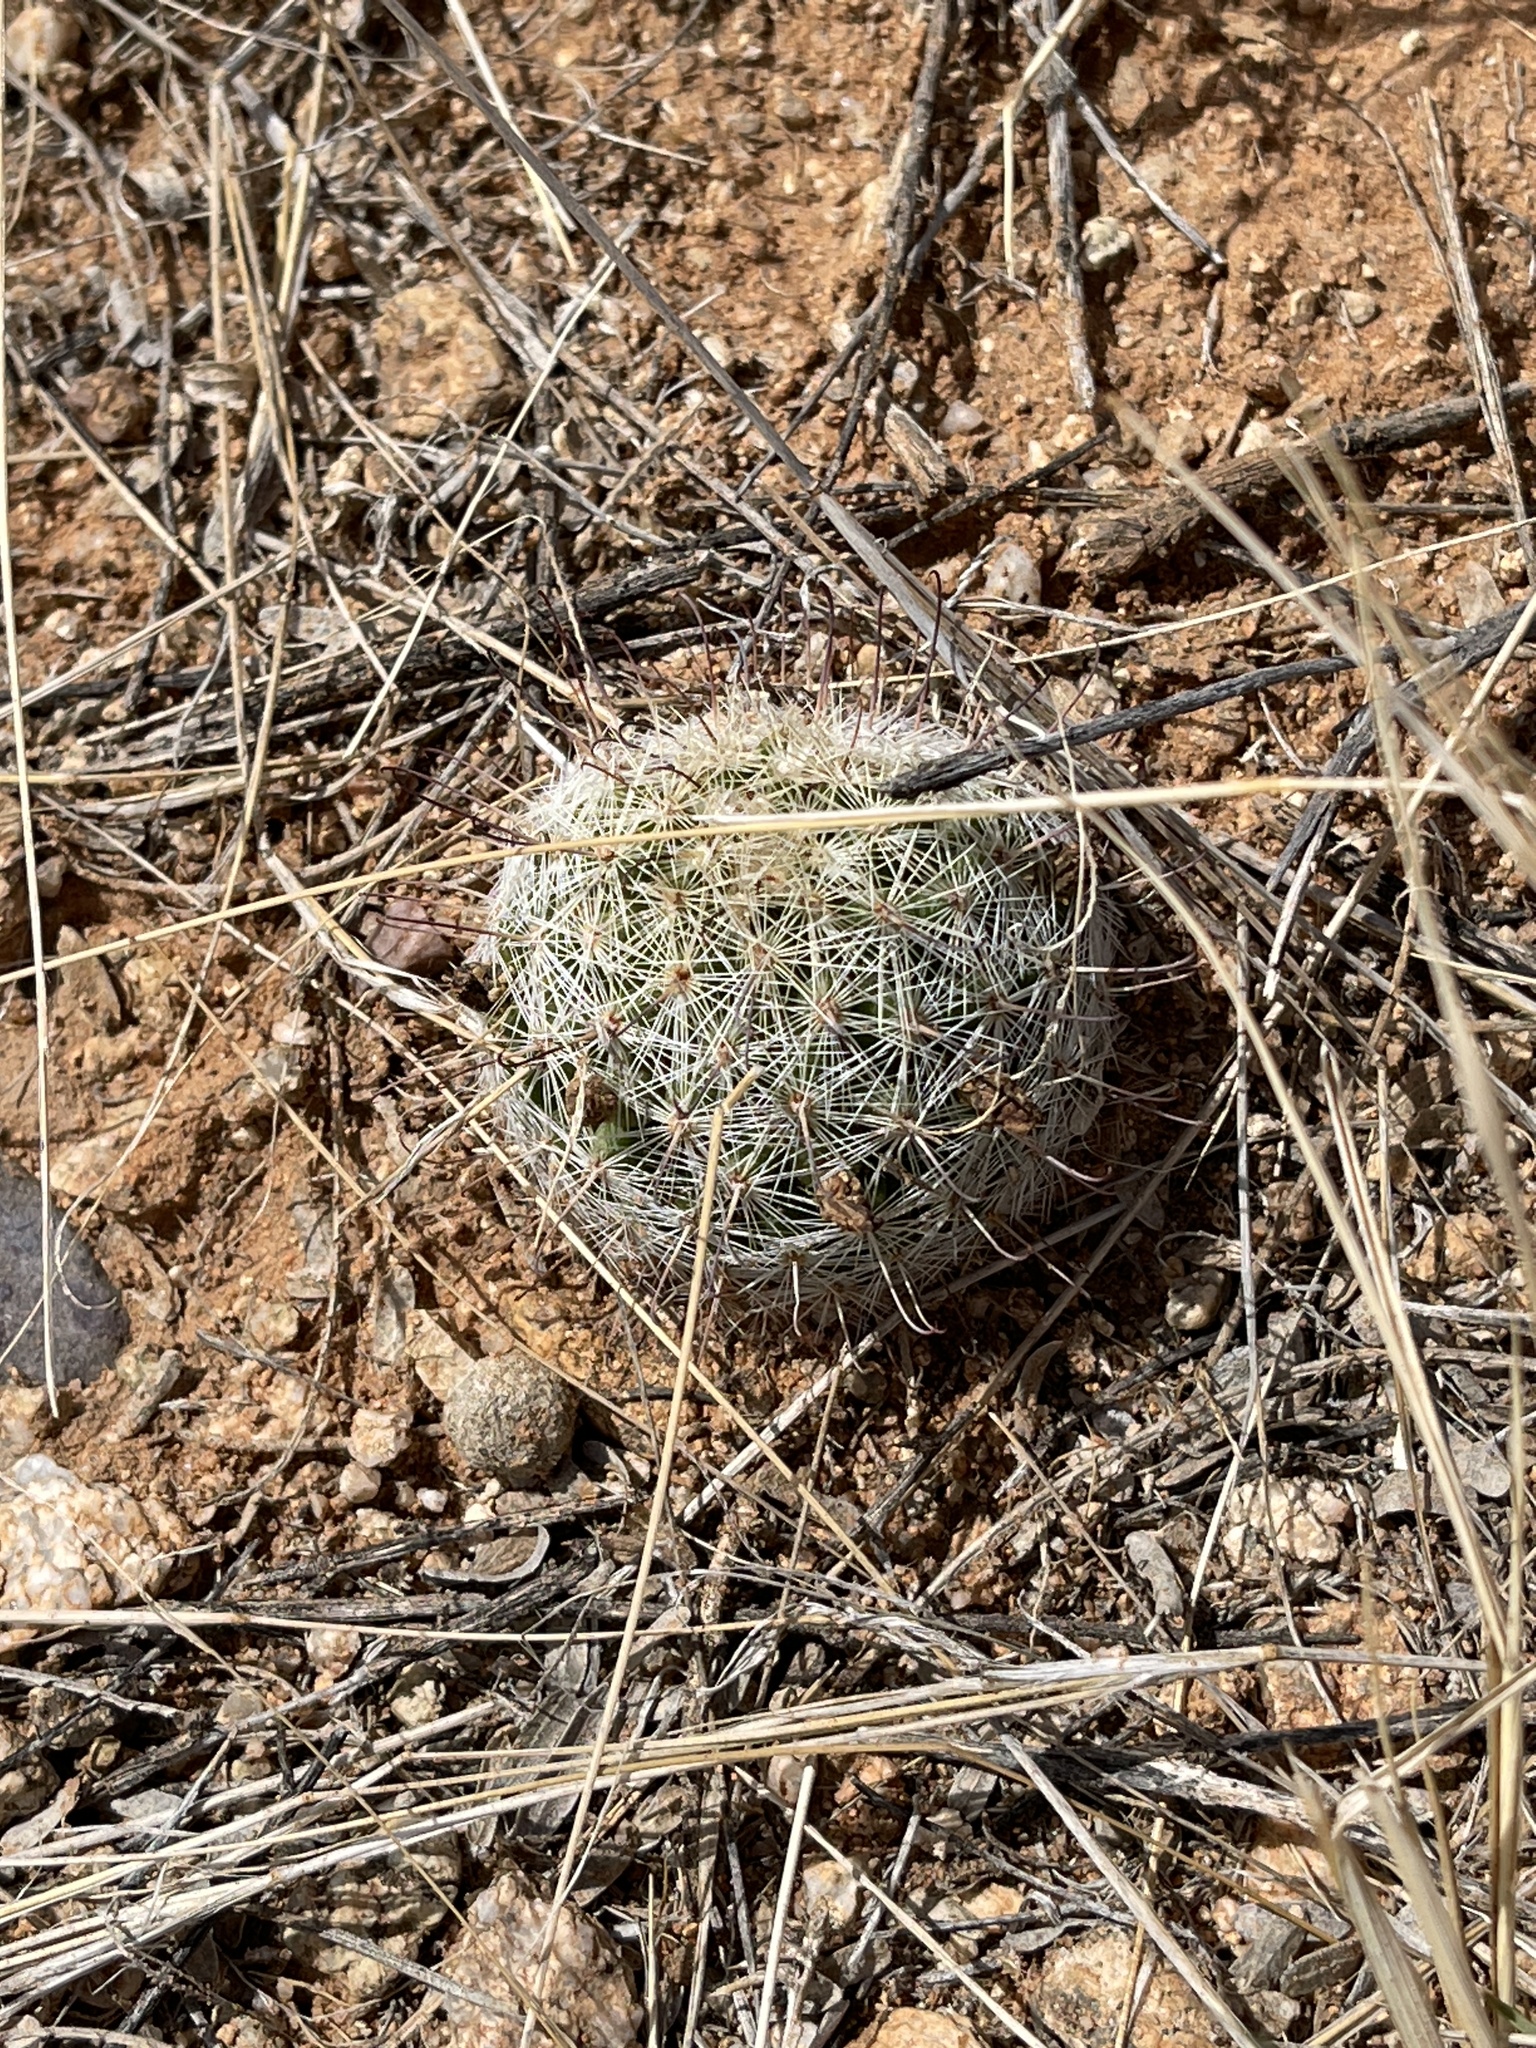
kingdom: Plantae
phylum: Tracheophyta
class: Magnoliopsida
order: Caryophyllales
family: Cactaceae
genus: Cochemiea
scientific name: Cochemiea grahamii
